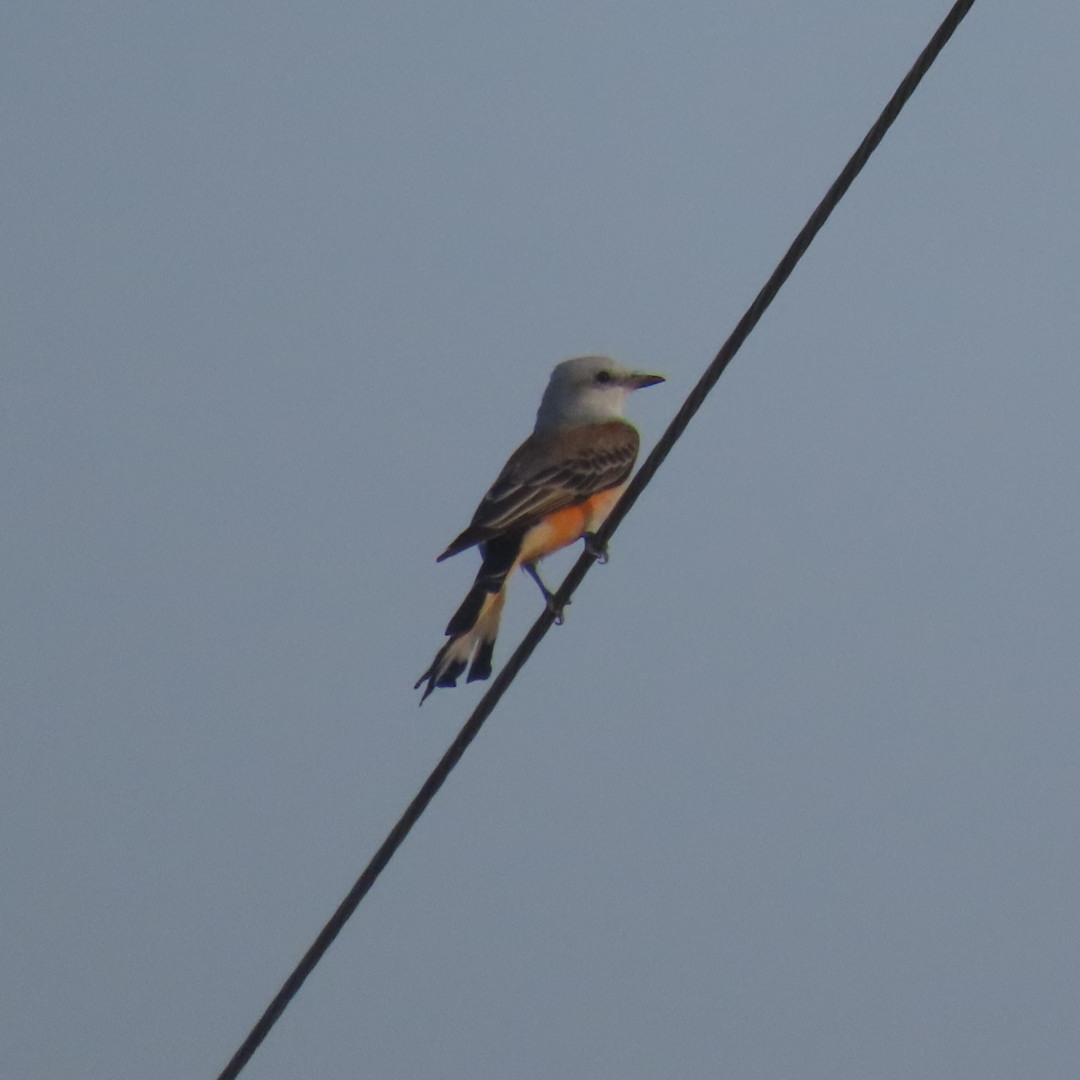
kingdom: Animalia
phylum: Chordata
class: Aves
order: Passeriformes
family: Tyrannidae
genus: Tyrannus
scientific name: Tyrannus forficatus
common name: Scissor-tailed flycatcher
